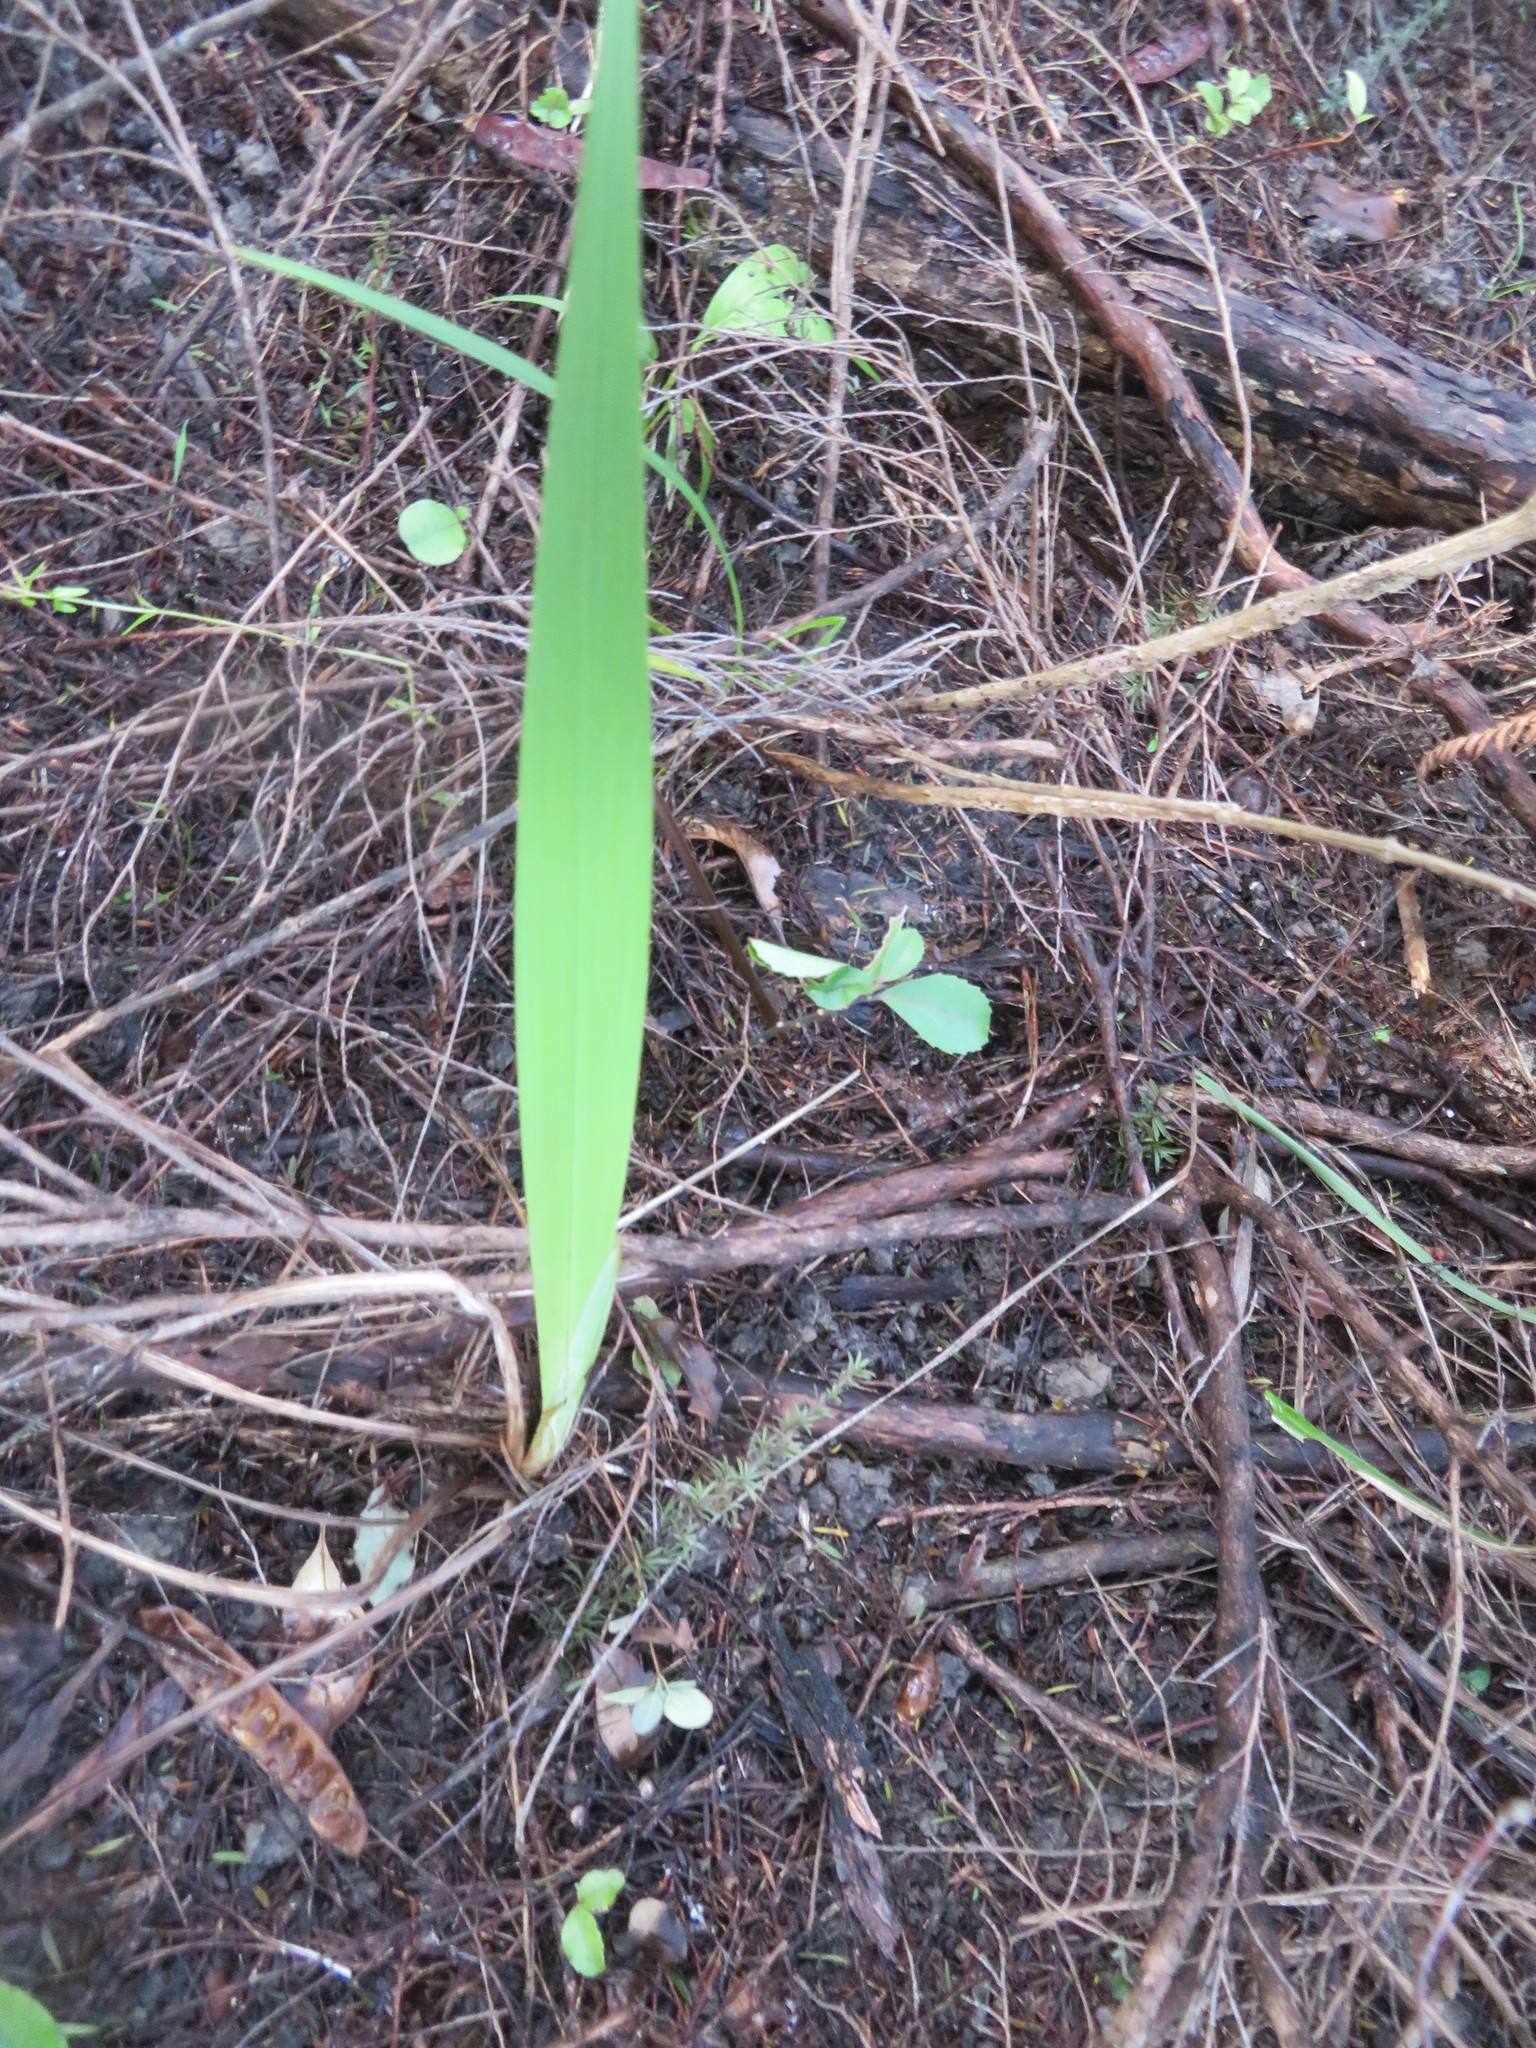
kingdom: Plantae
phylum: Tracheophyta
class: Liliopsida
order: Asparagales
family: Iridaceae
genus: Watsonia
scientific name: Watsonia meriana
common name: Bulbil bugle-lily
